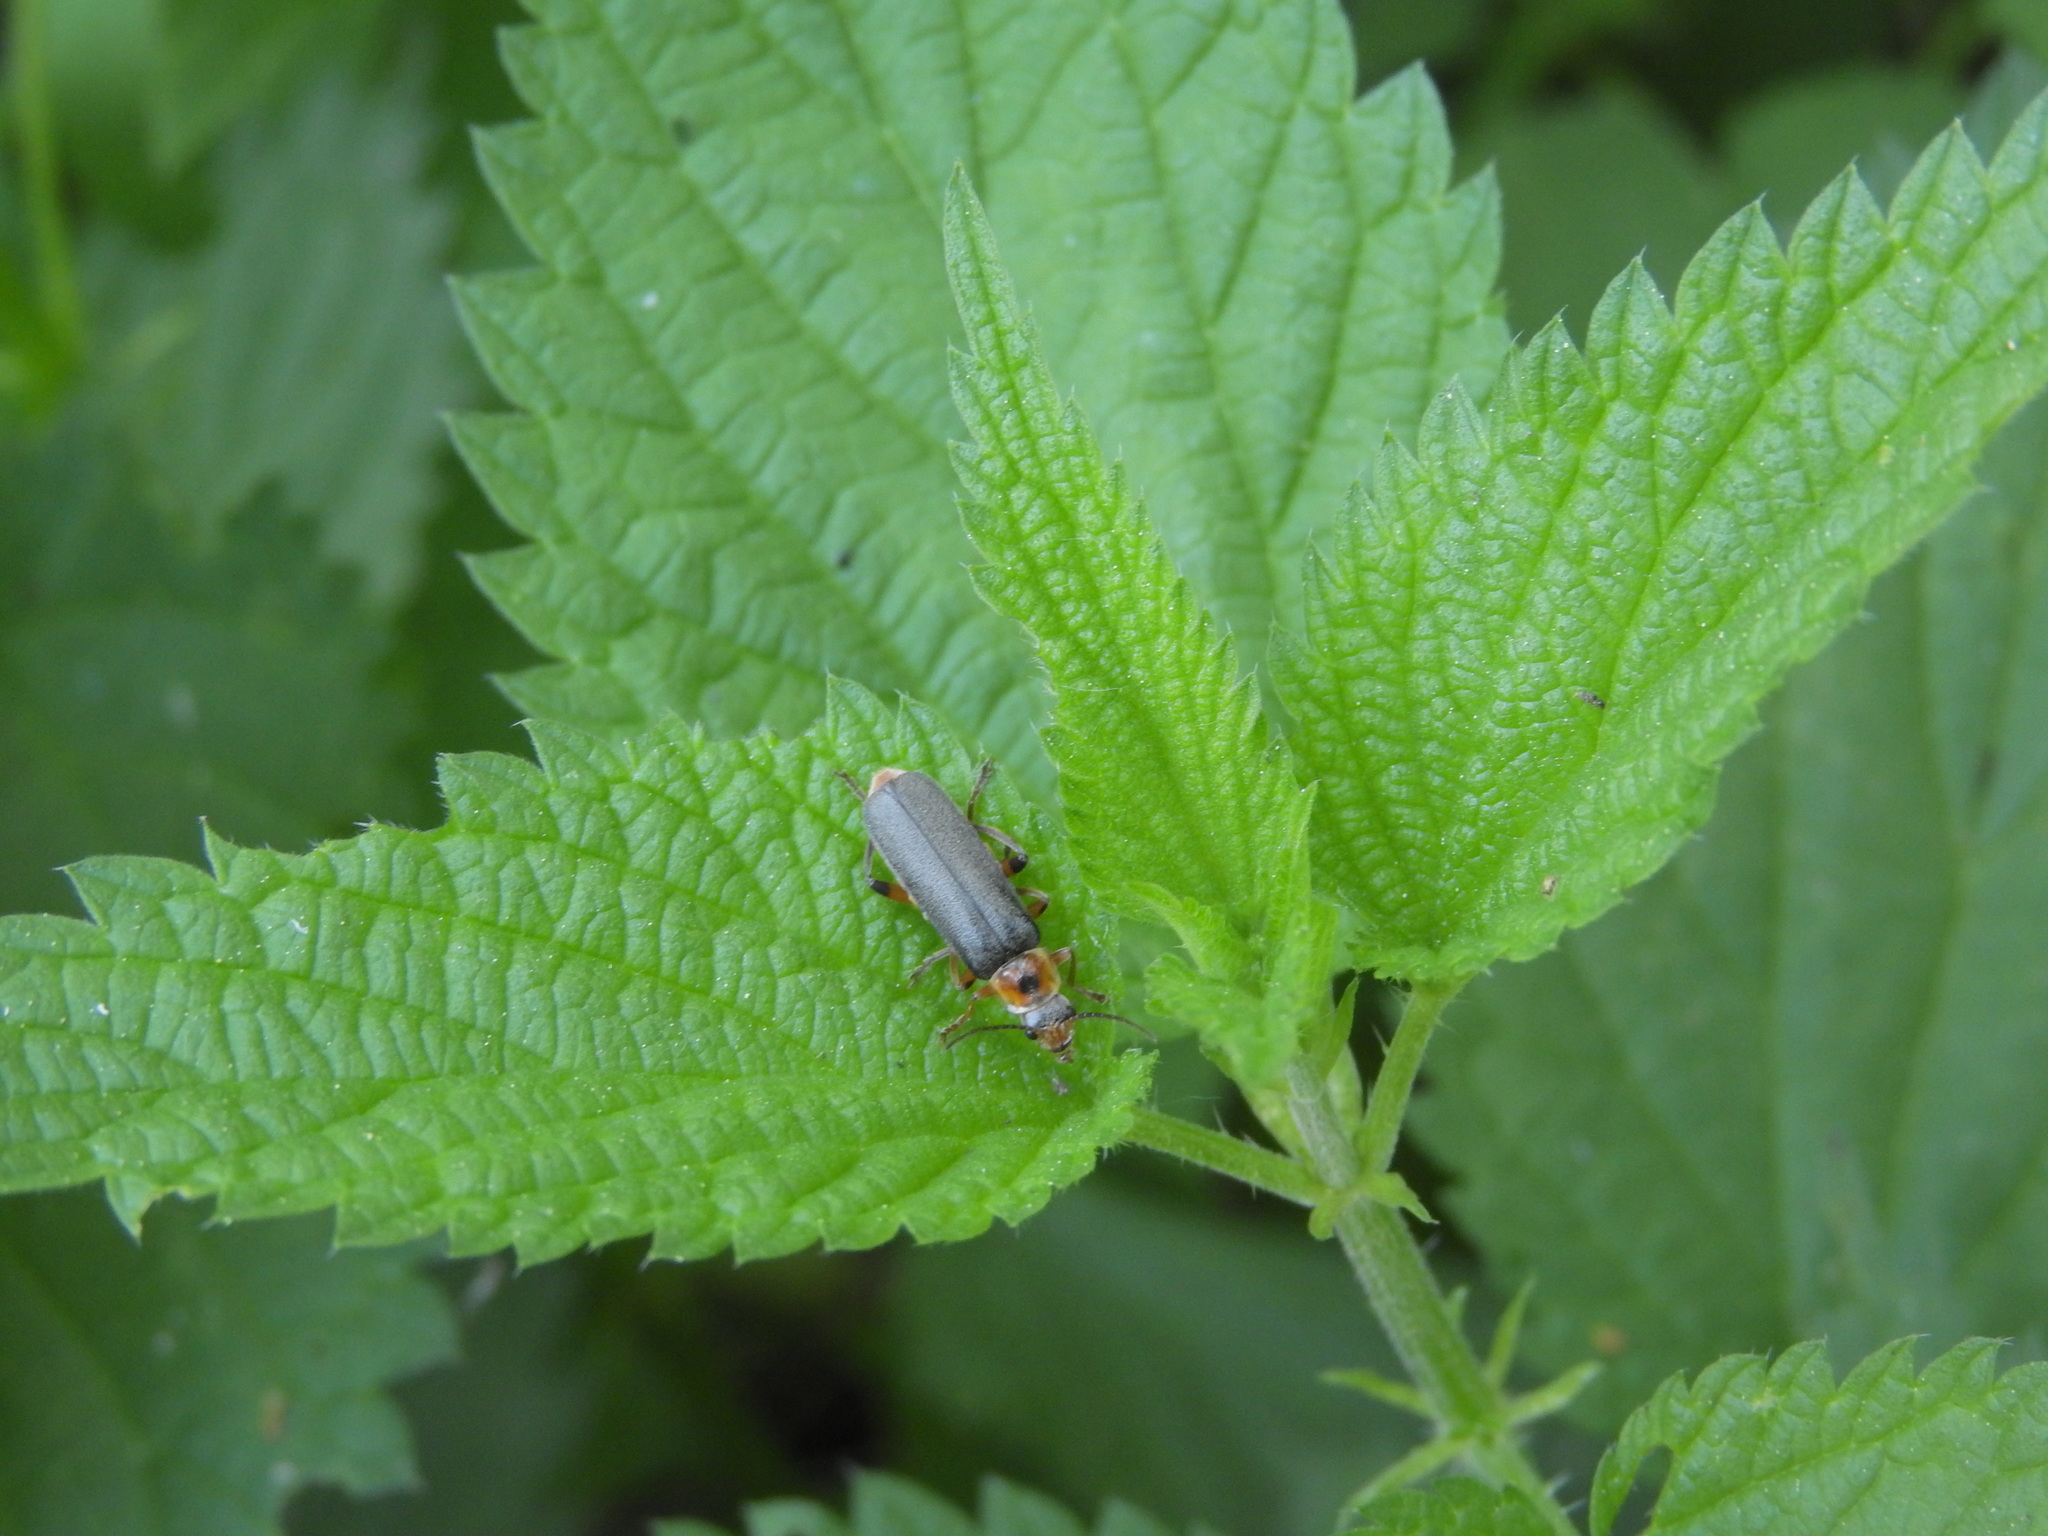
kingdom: Animalia
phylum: Arthropoda
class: Insecta
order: Coleoptera
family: Cantharidae
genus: Cantharis
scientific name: Cantharis nigricans
